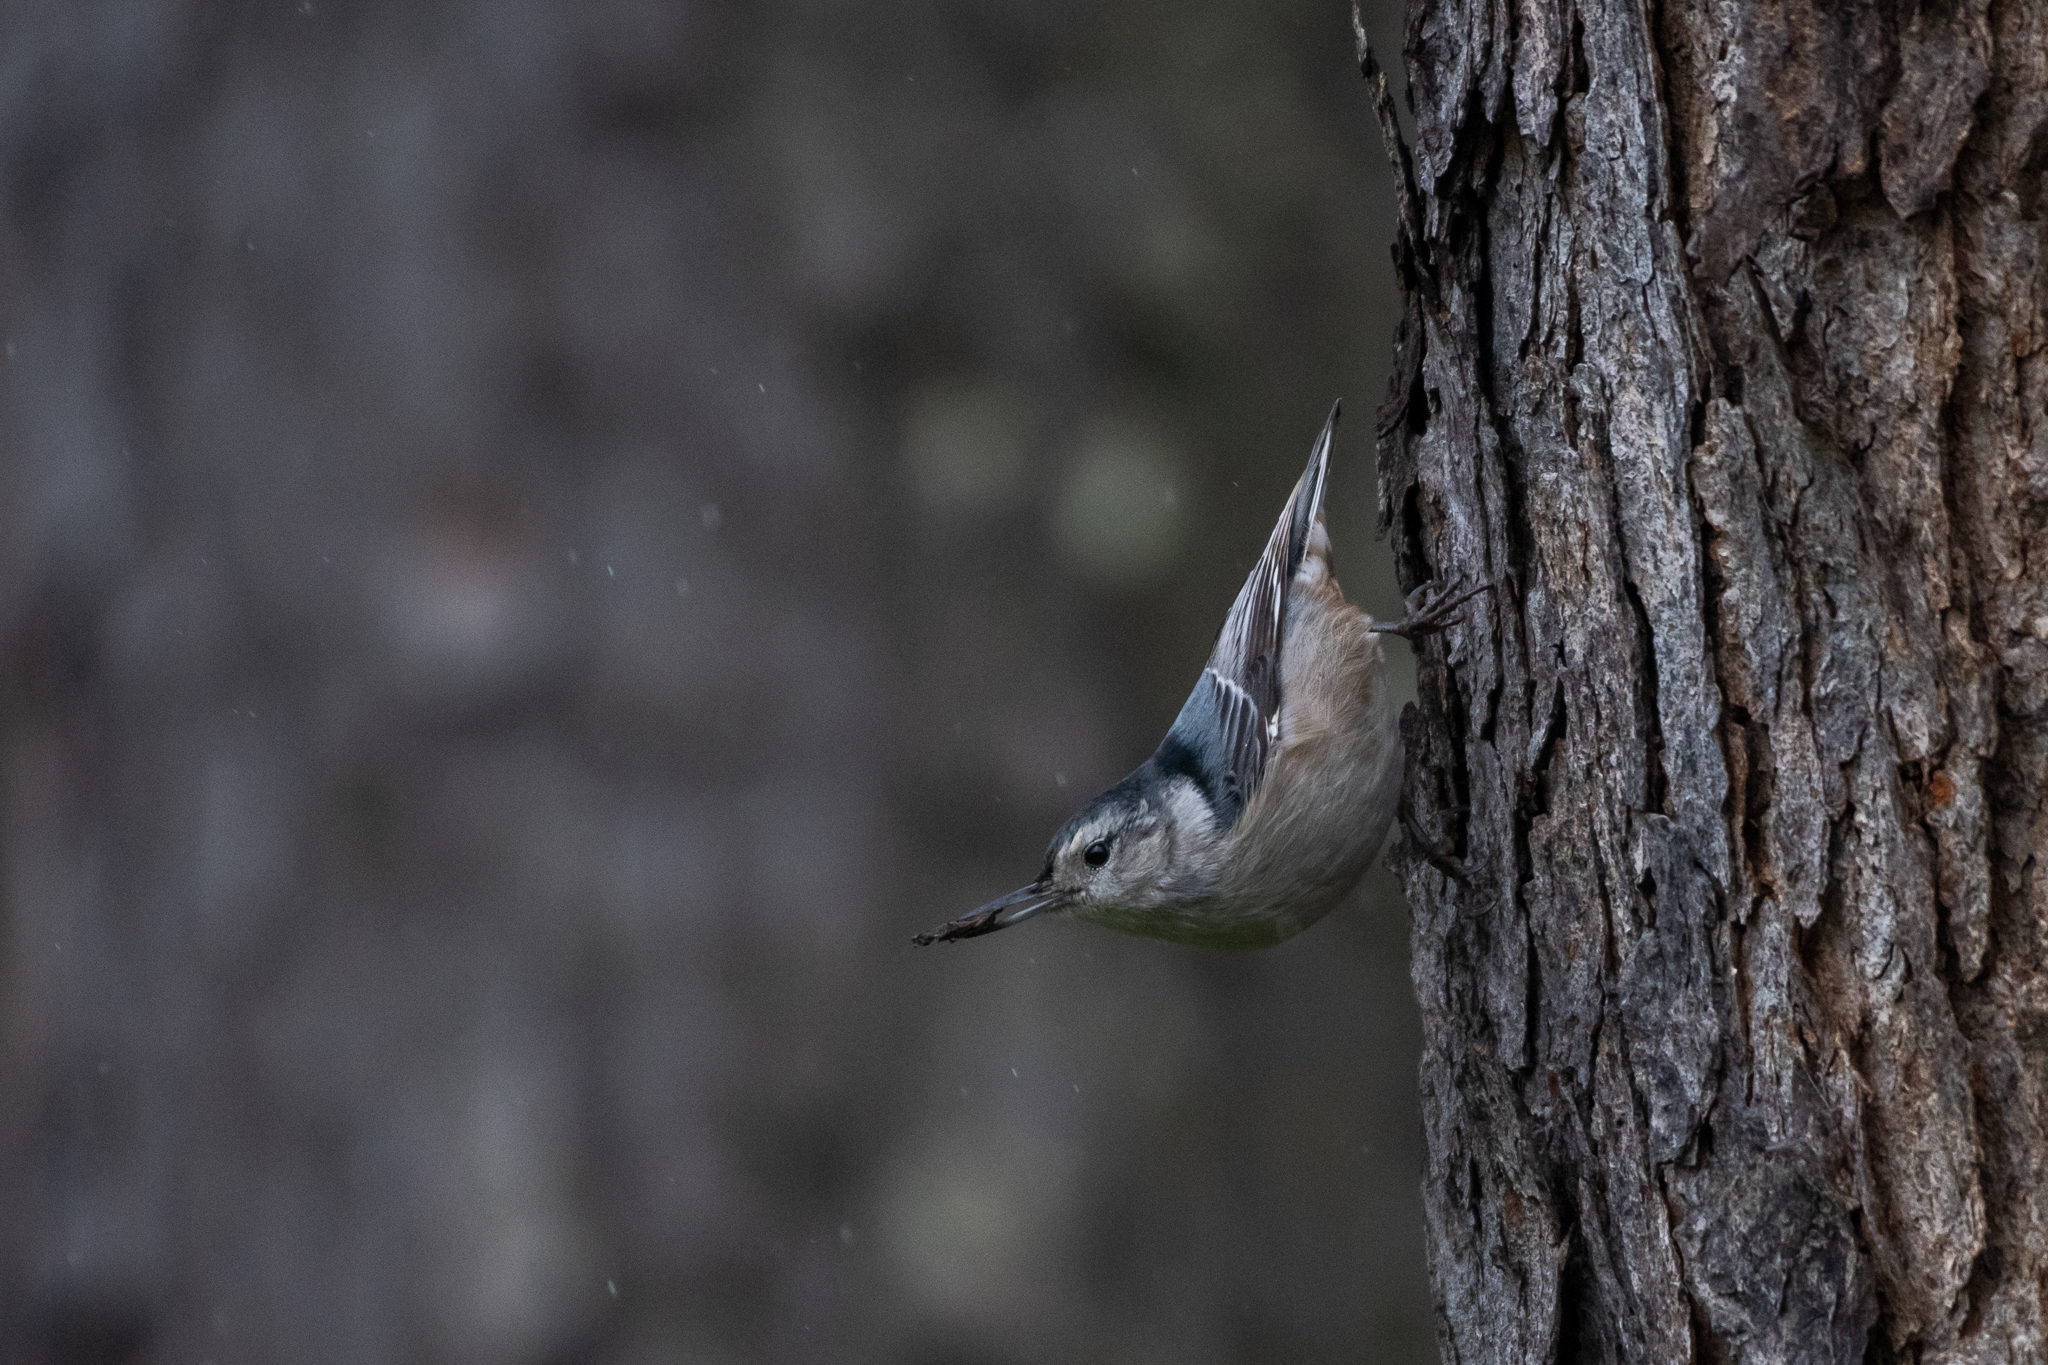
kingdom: Animalia
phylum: Chordata
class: Aves
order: Passeriformes
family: Sittidae
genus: Sitta
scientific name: Sitta carolinensis
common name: White-breasted nuthatch
